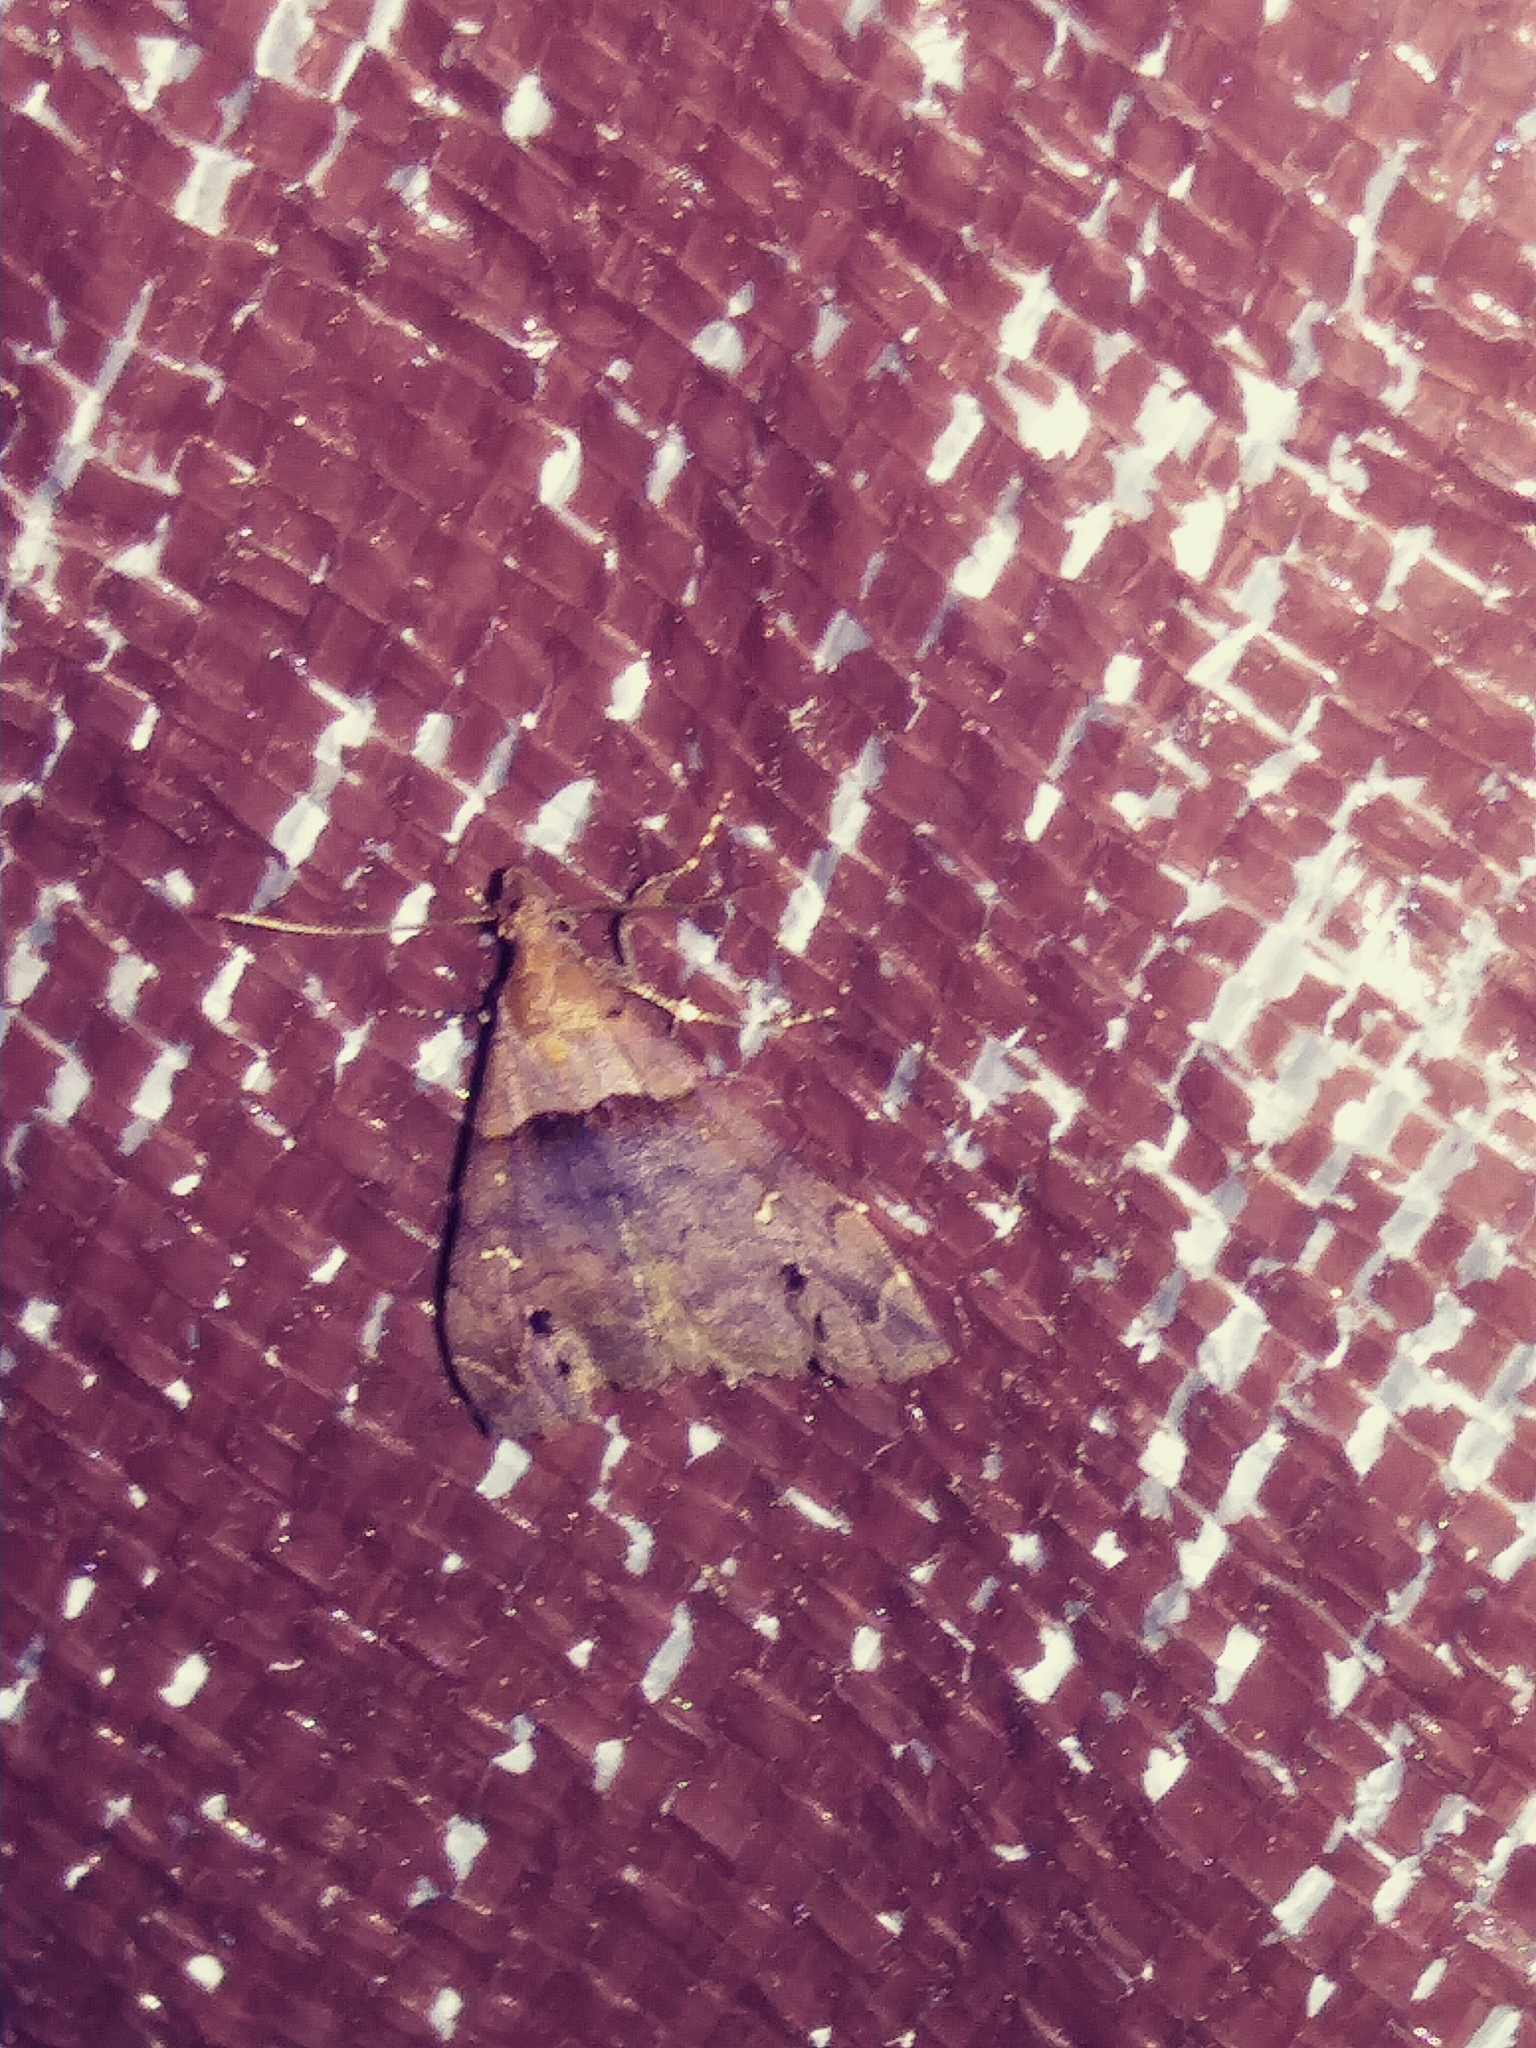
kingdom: Animalia
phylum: Arthropoda
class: Insecta
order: Lepidoptera
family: Erebidae
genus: Lascoria
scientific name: Lascoria ambigualis
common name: Ambiguous moth
